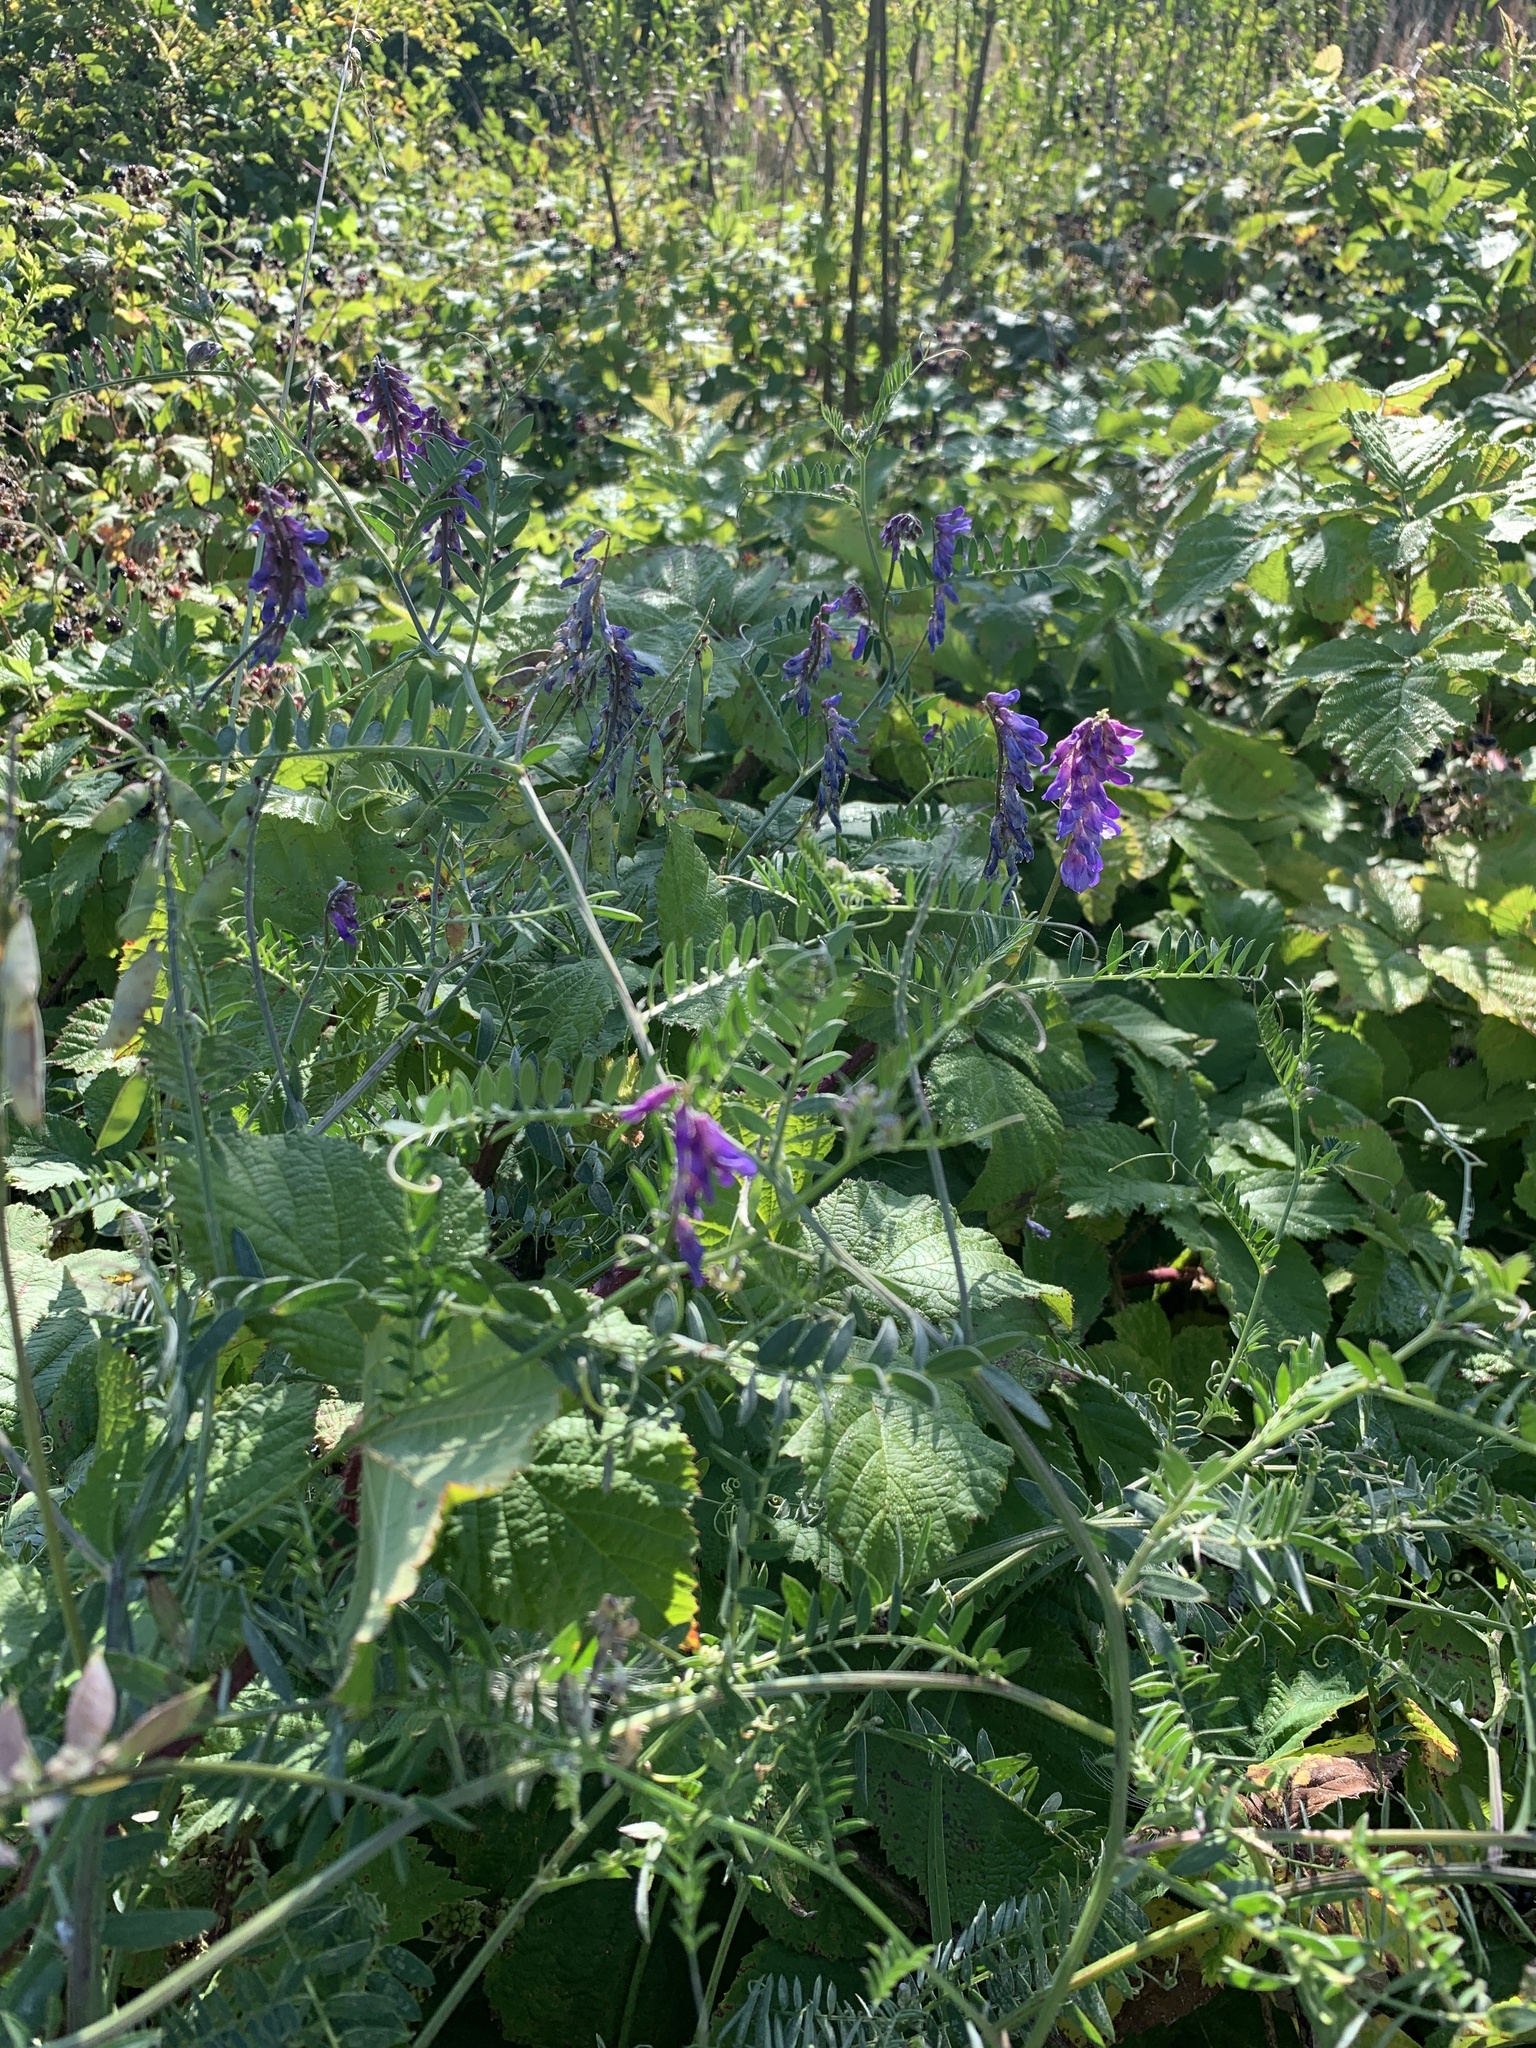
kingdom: Plantae
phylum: Tracheophyta
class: Magnoliopsida
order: Fabales
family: Fabaceae
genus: Vicia
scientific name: Vicia cracca
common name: Bird vetch
